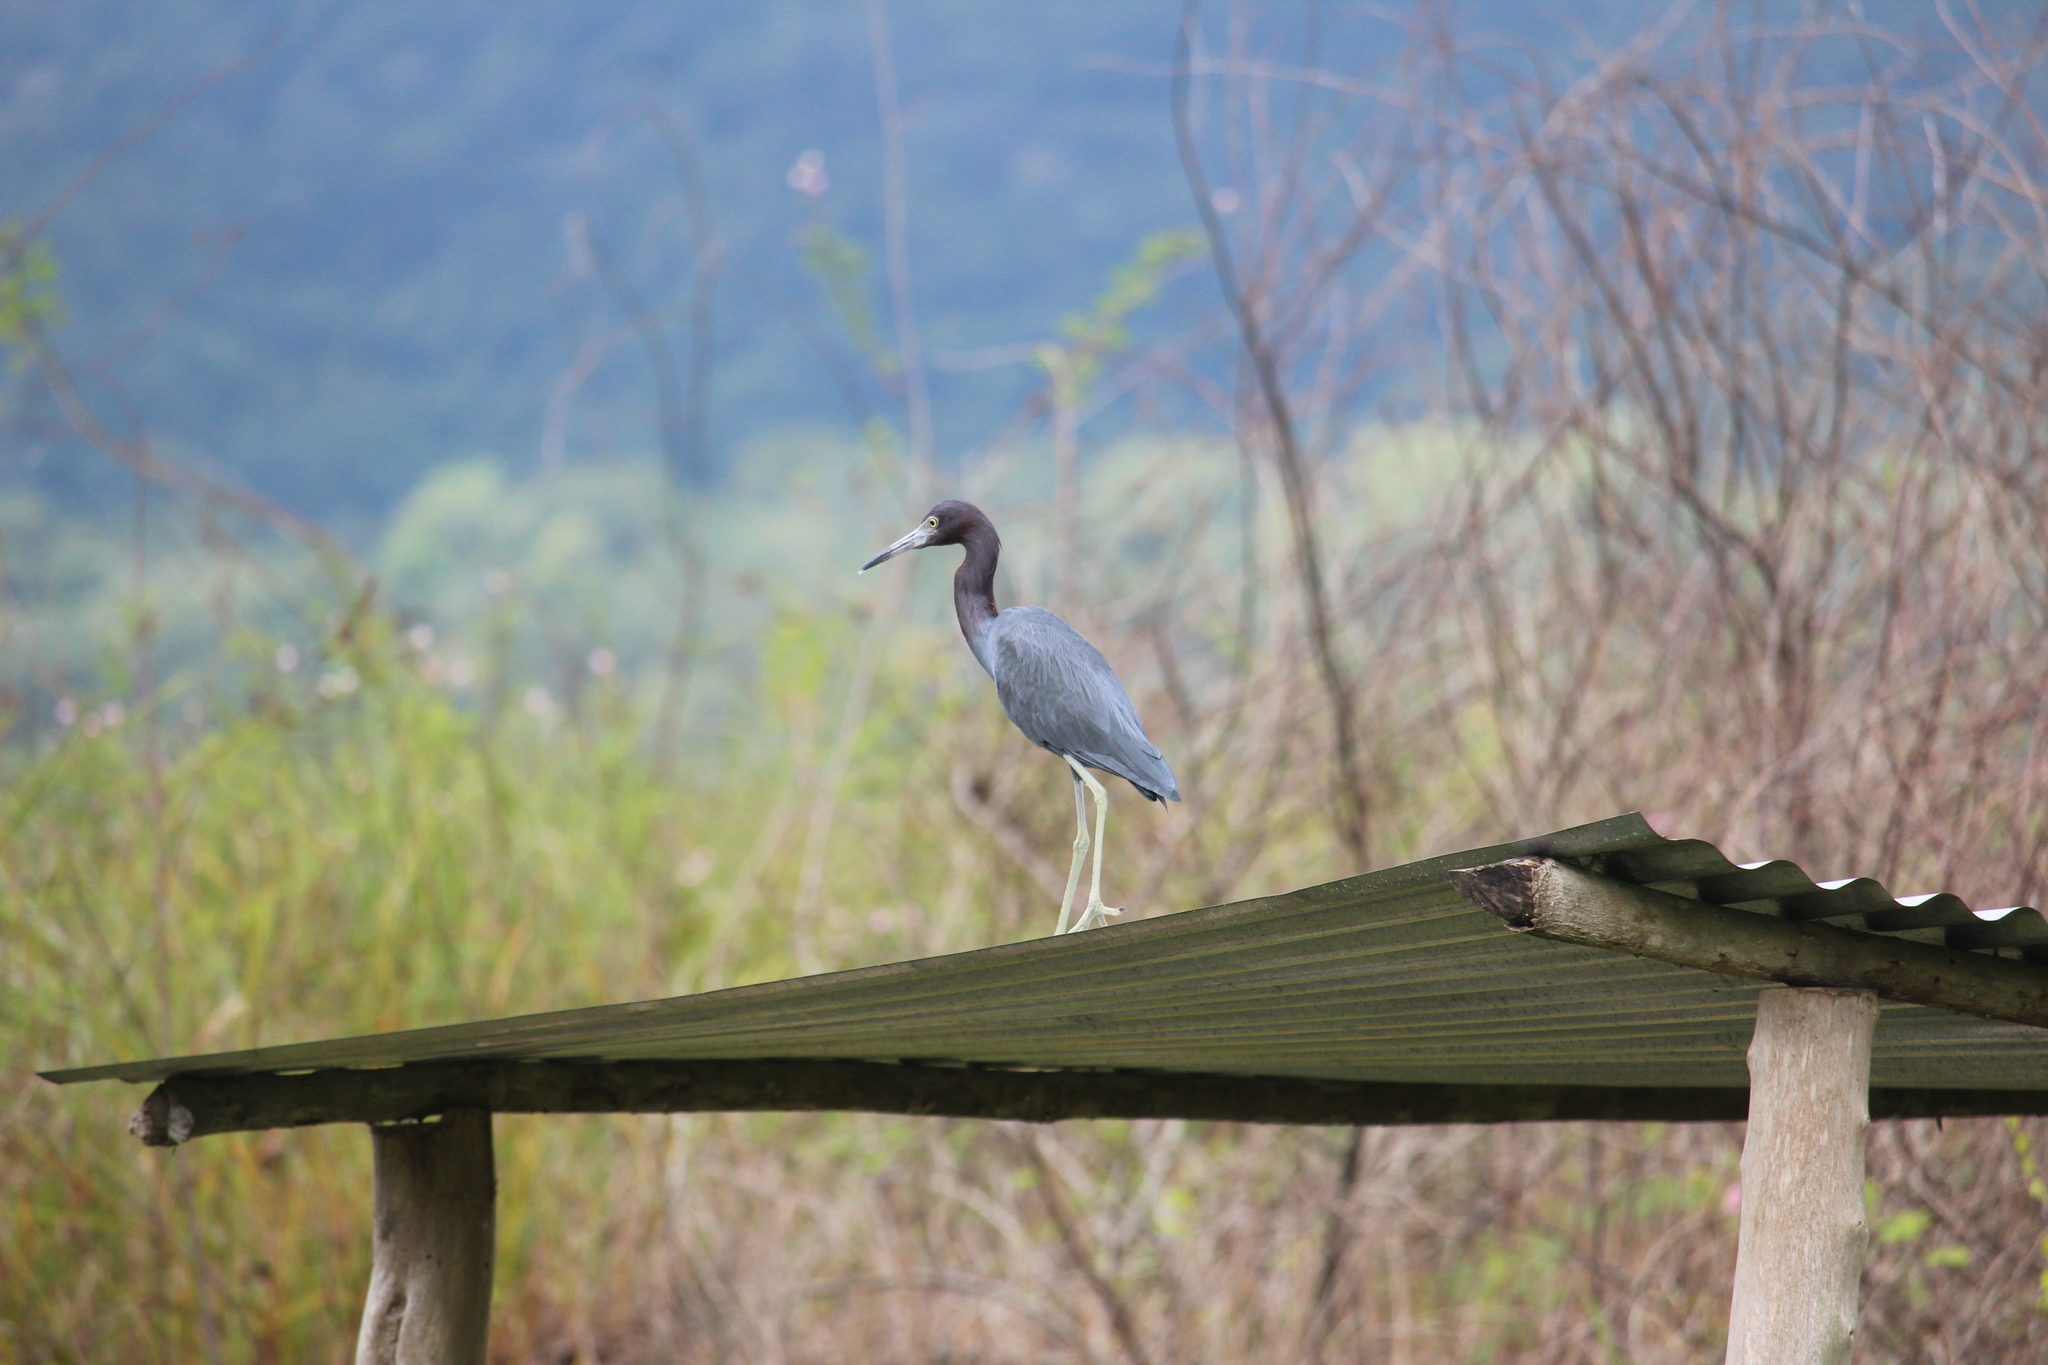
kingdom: Animalia
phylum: Chordata
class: Aves
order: Pelecaniformes
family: Ardeidae
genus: Egretta
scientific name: Egretta caerulea
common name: Little blue heron
